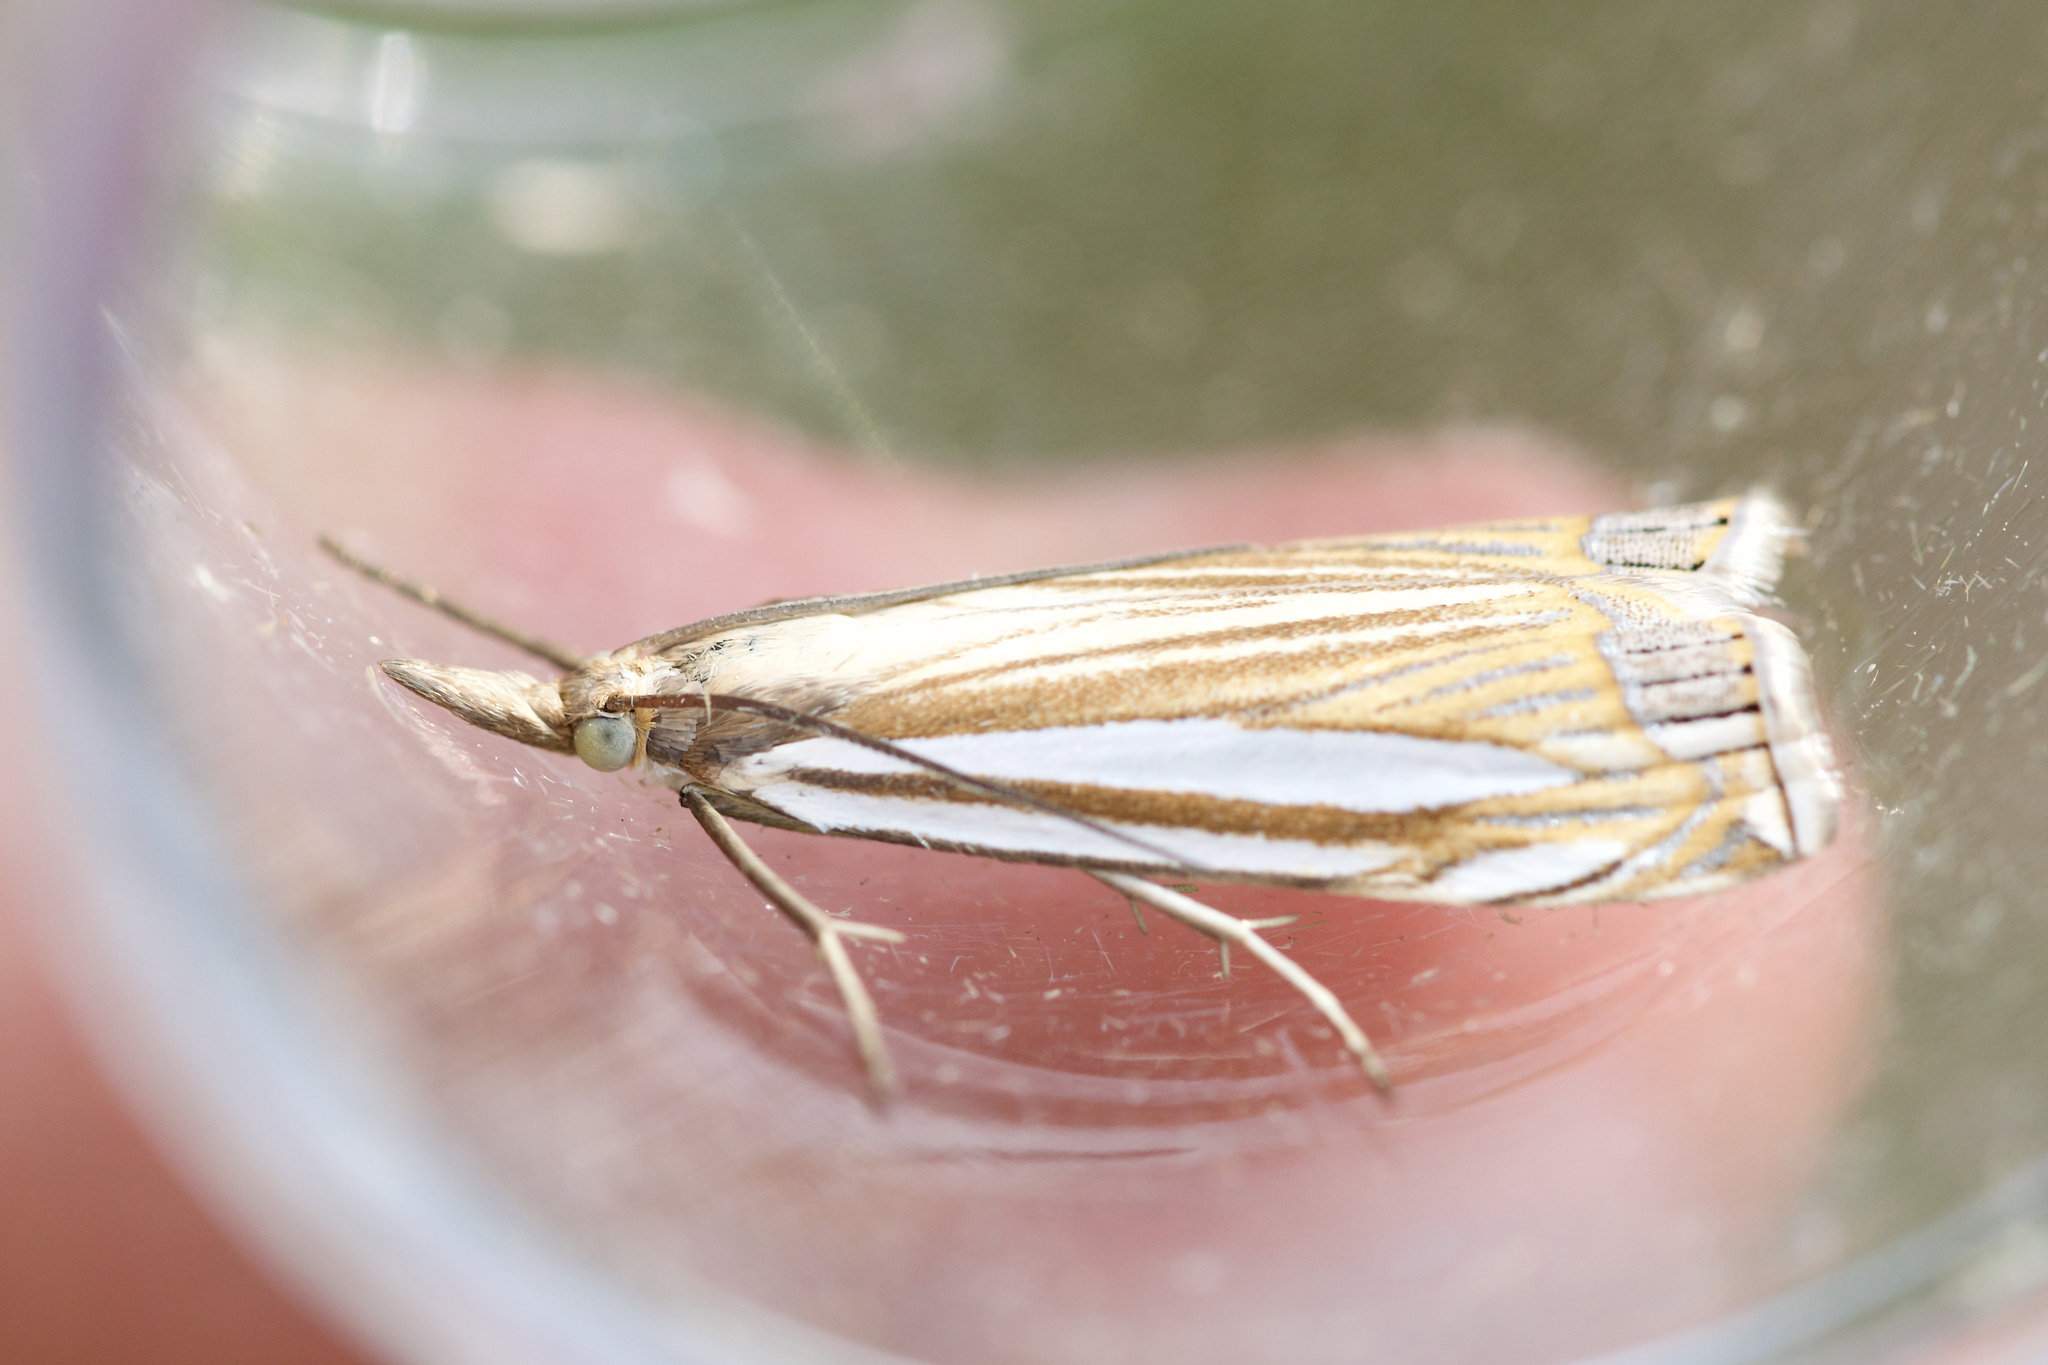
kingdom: Animalia
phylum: Arthropoda
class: Insecta
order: Lepidoptera
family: Crambidae
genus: Crambus
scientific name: Crambus laqueatellus
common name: Eastern grass-veneer
